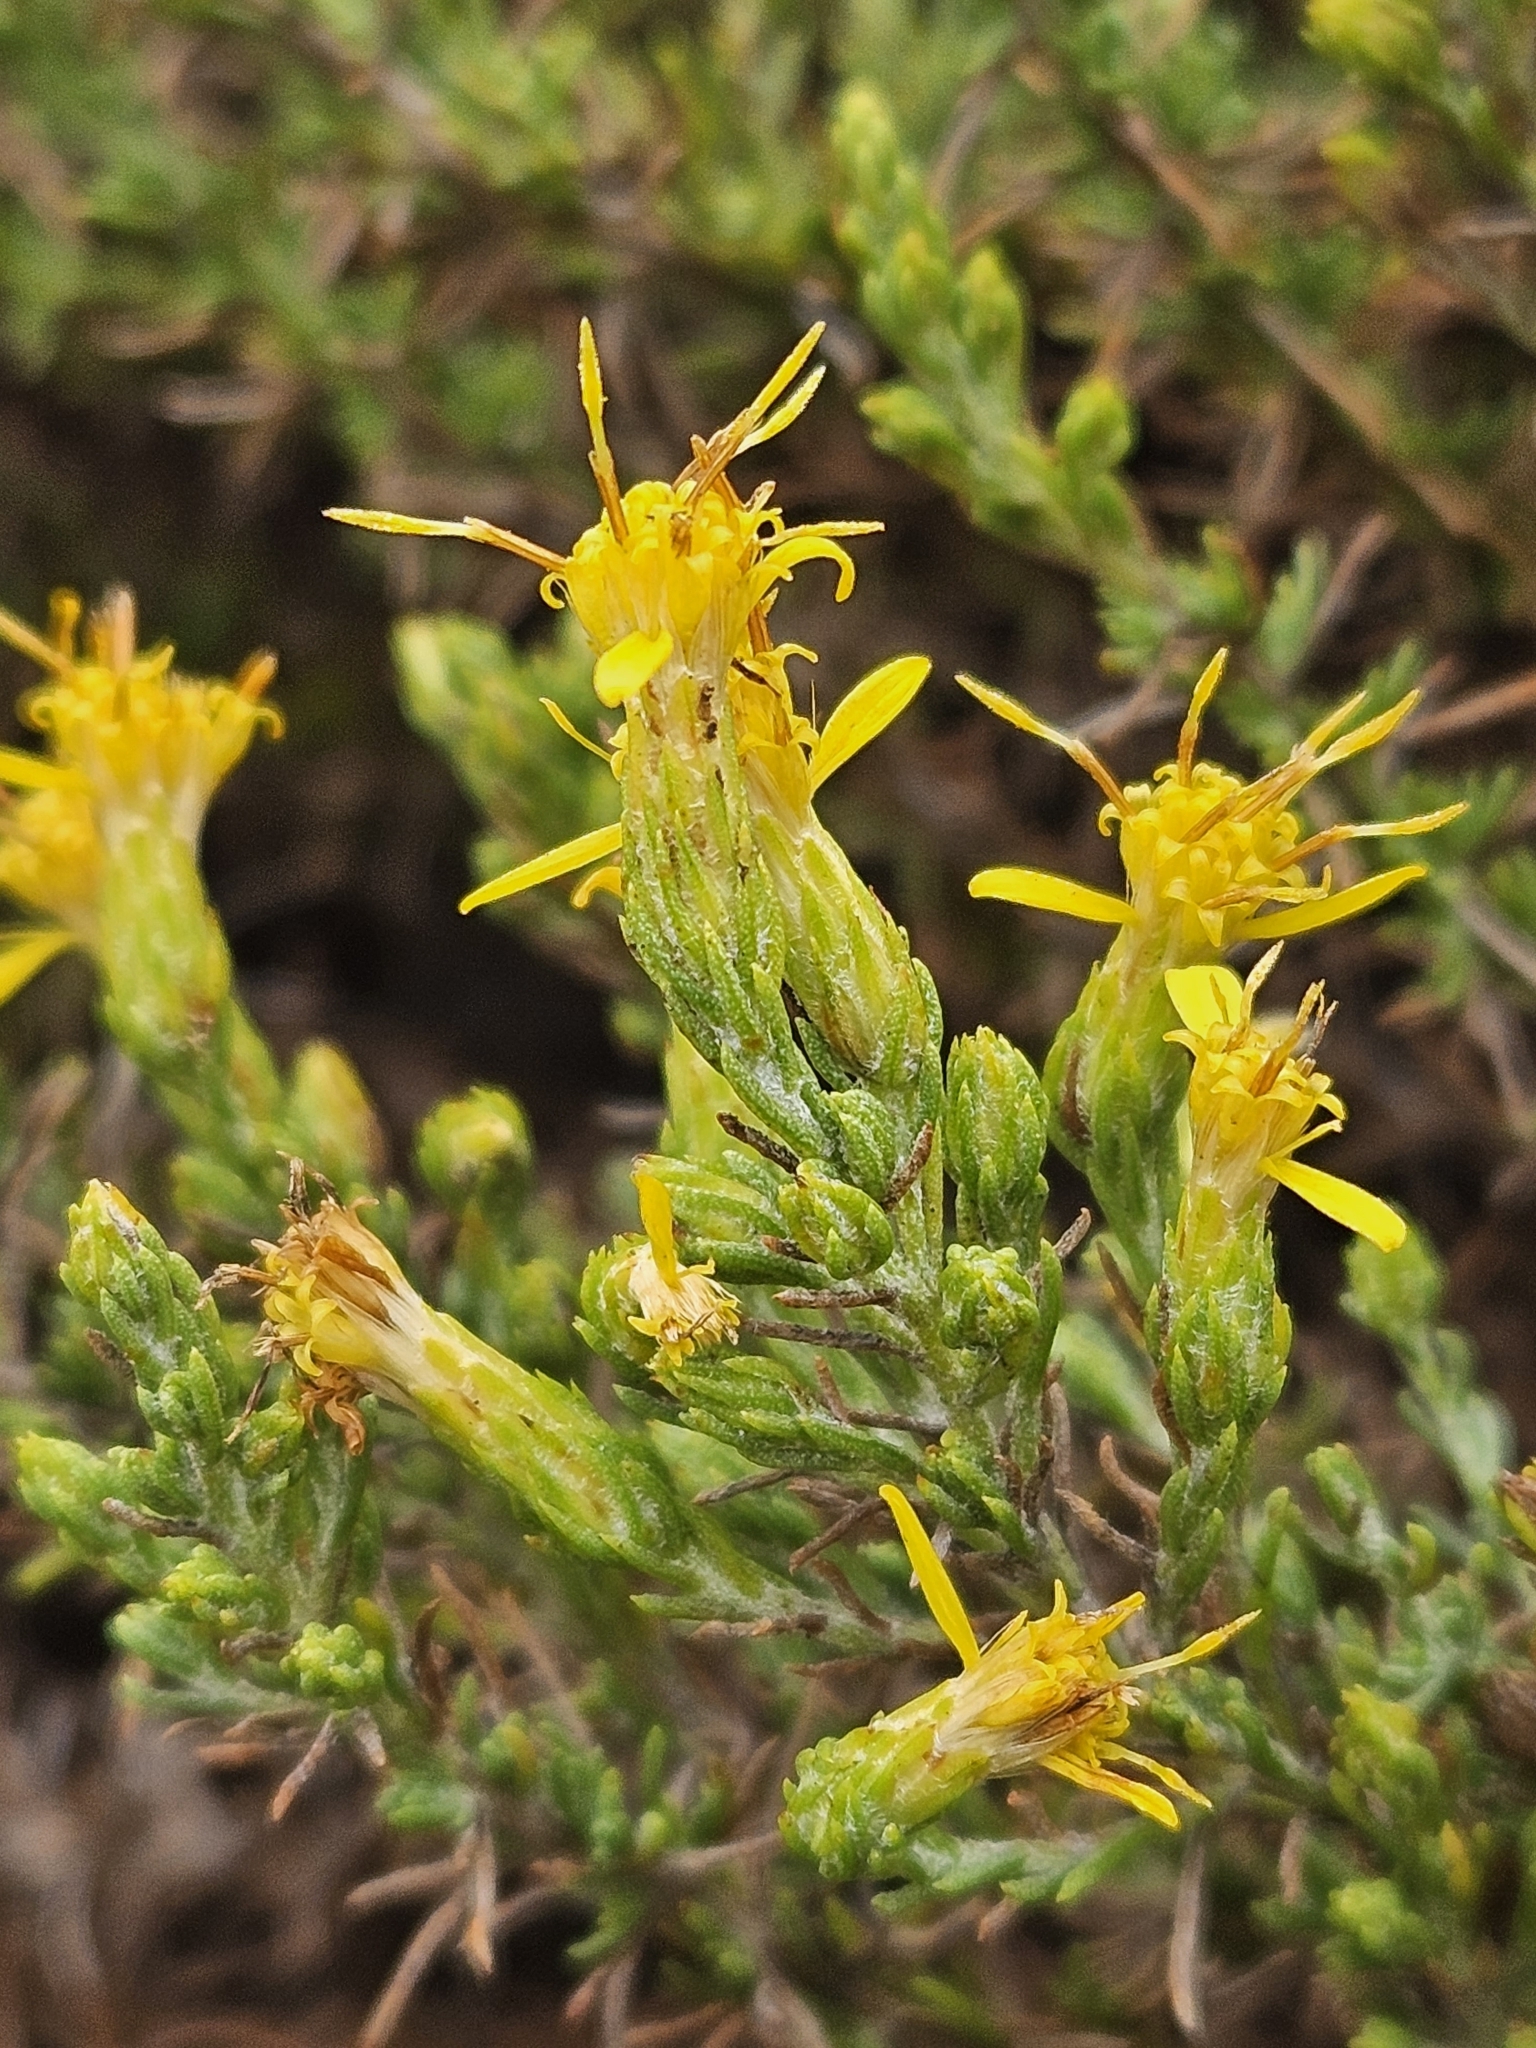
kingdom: Plantae
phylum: Tracheophyta
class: Magnoliopsida
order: Asterales
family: Asteraceae
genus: Ericameria
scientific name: Ericameria ericoides
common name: California goldenbush
